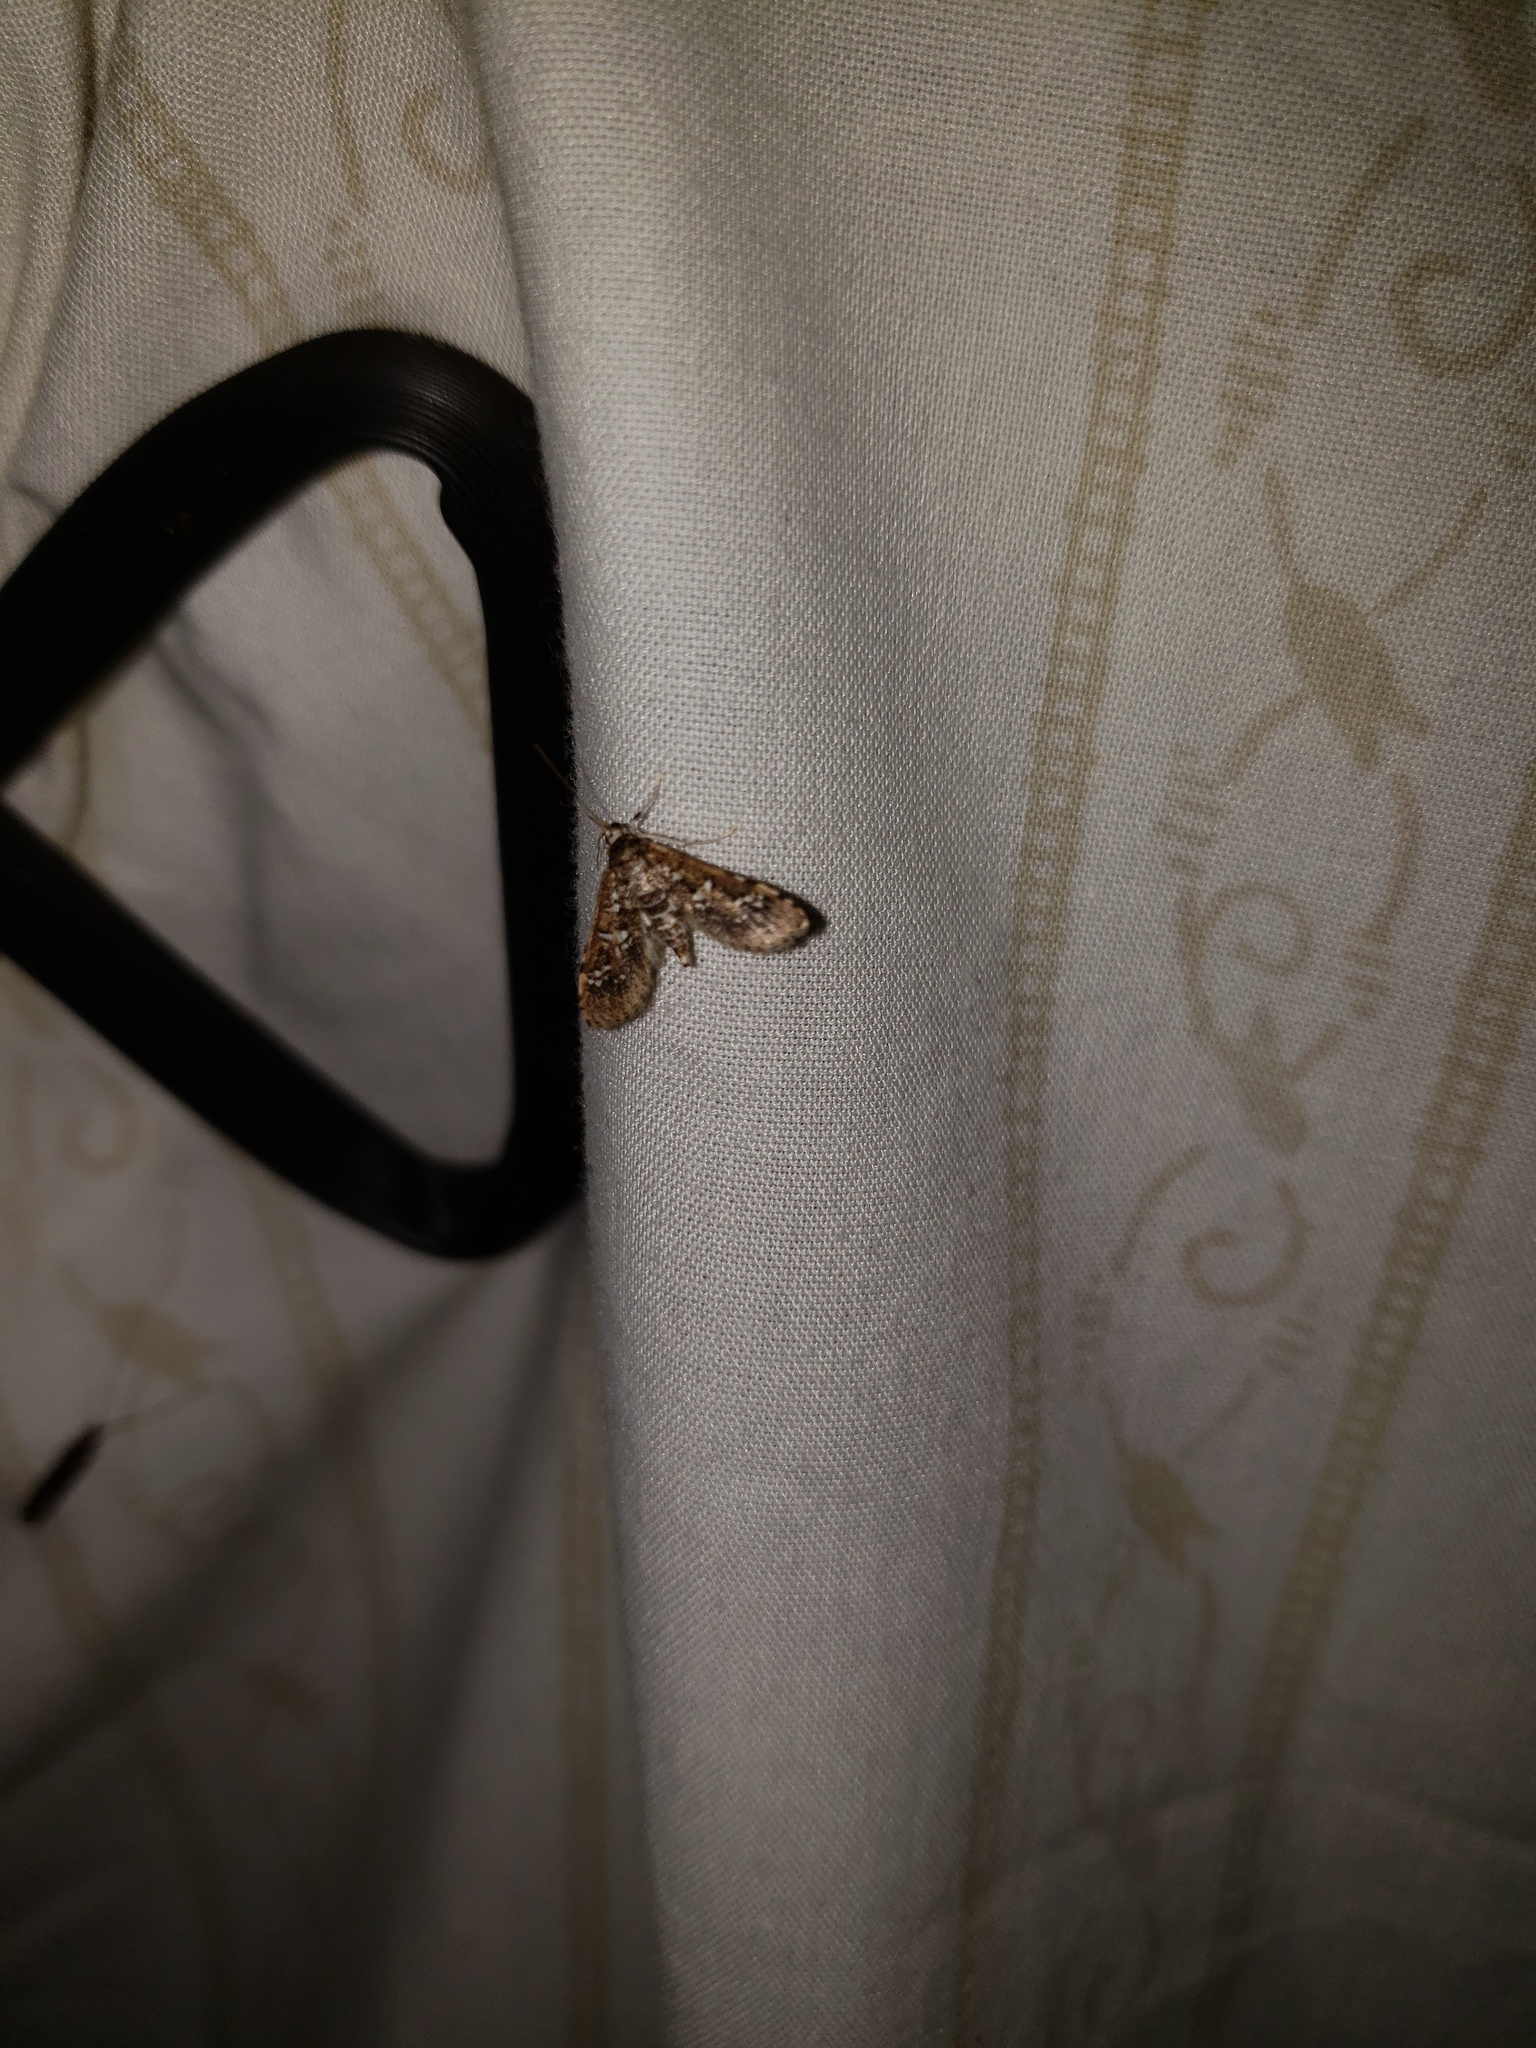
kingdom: Animalia
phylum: Arthropoda
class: Insecta
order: Lepidoptera
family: Crambidae
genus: Samea
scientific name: Samea multiplicalis
